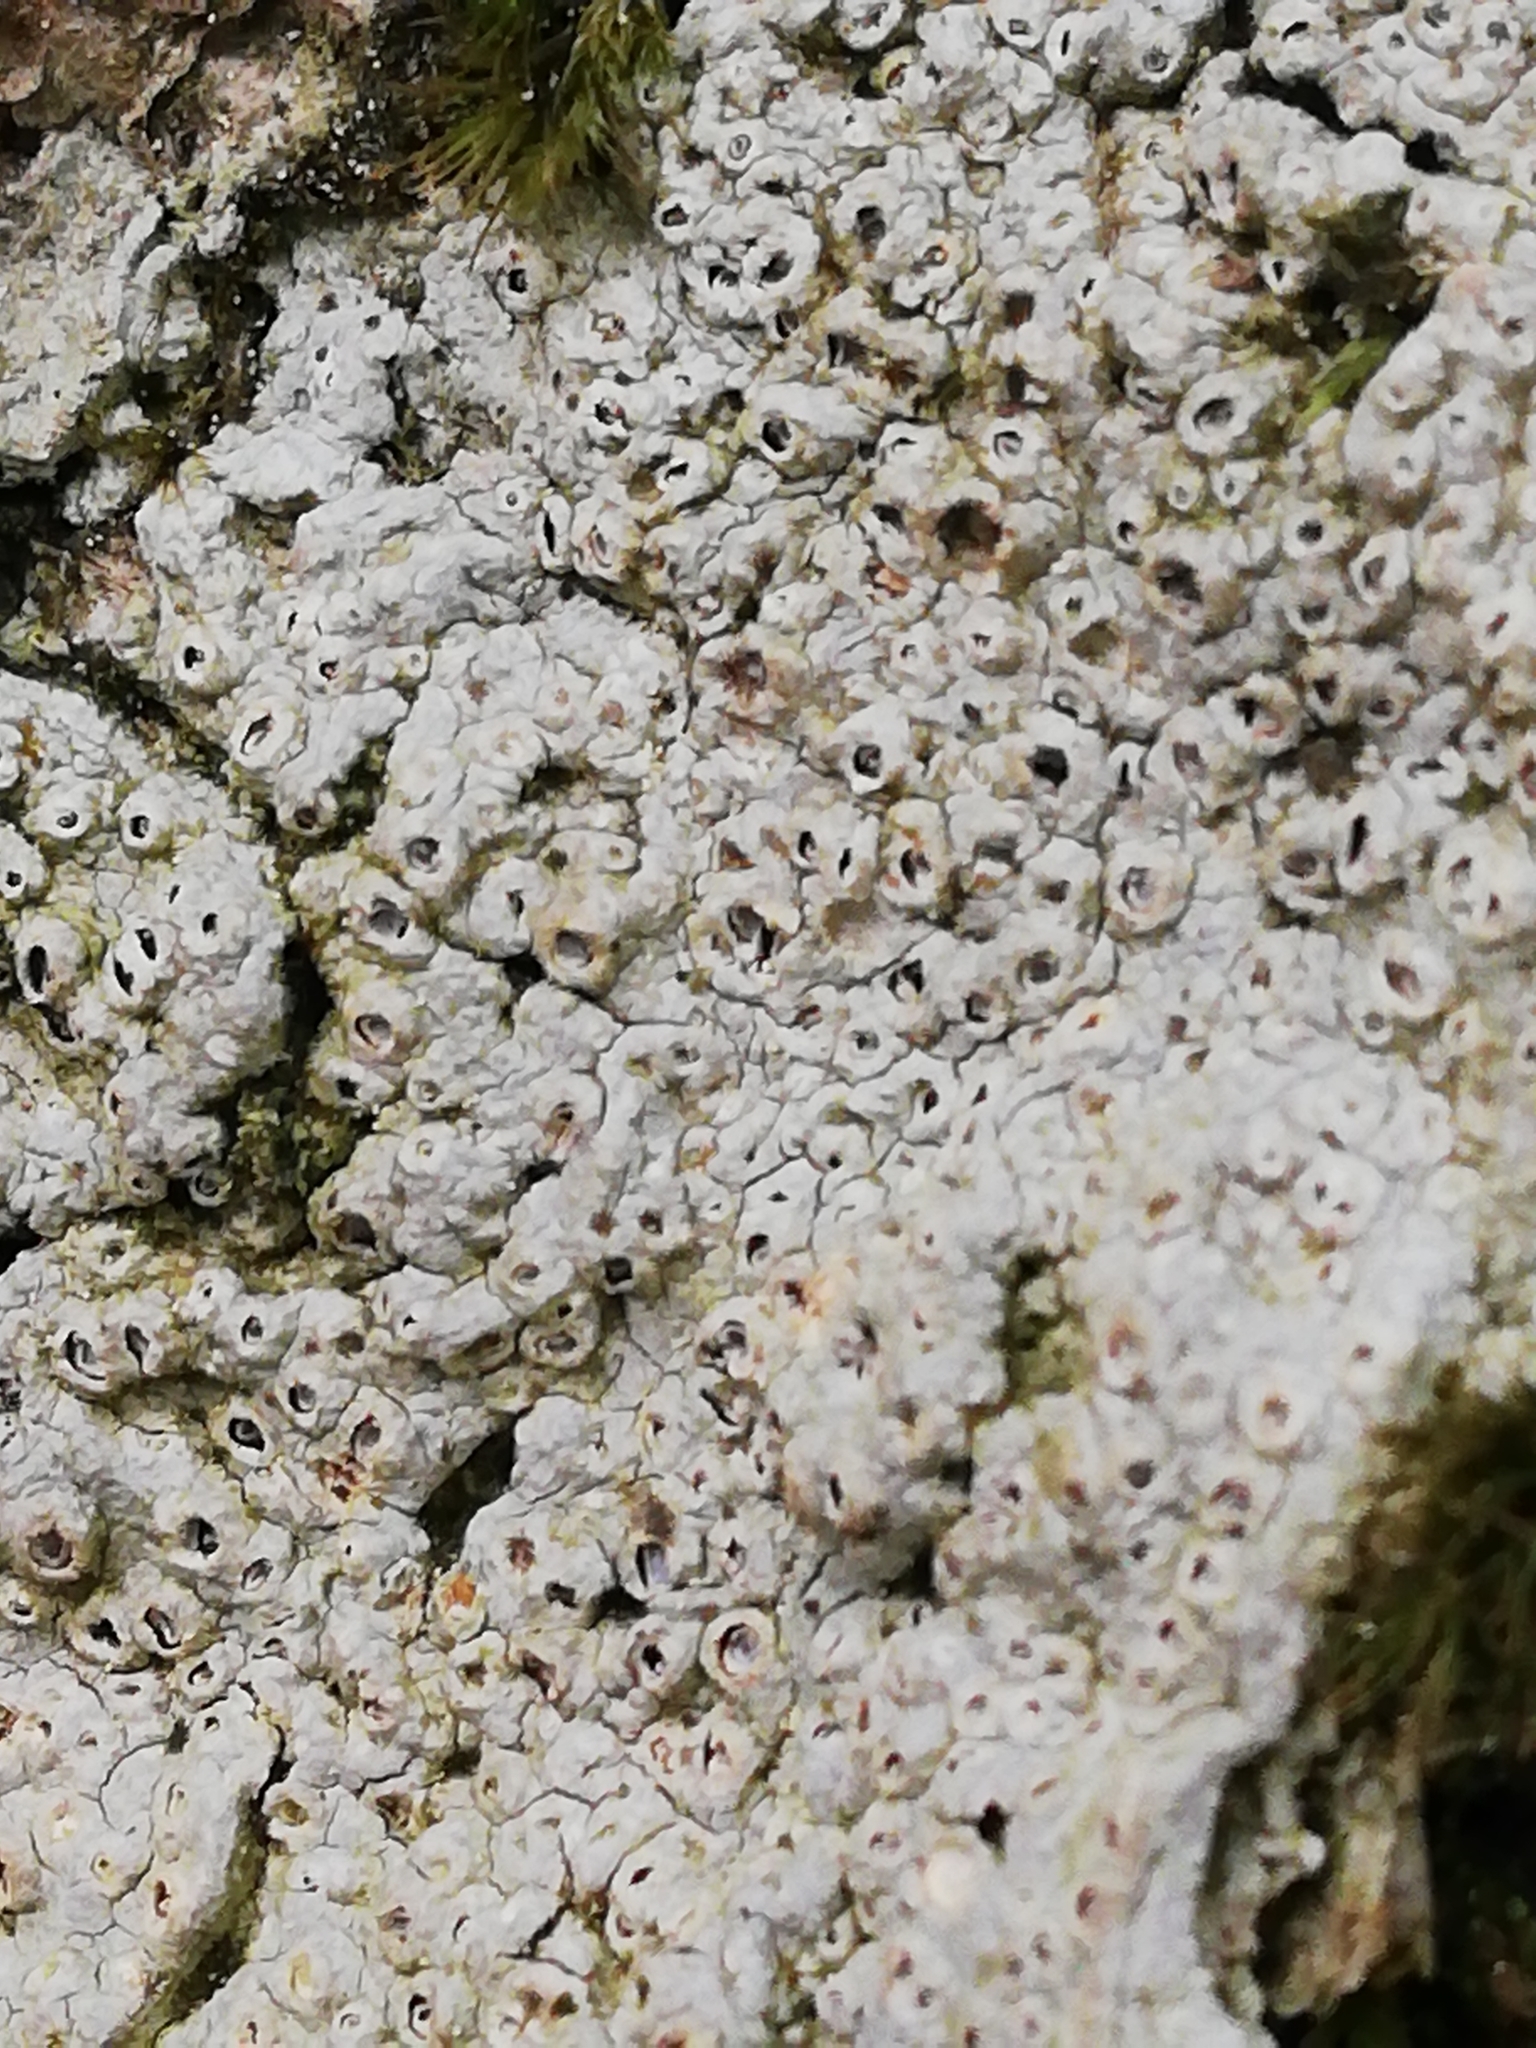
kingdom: Fungi
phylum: Ascomycota
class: Lecanoromycetes
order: Ostropales
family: Graphidaceae
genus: Thelotrema
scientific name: Thelotrema lepadinum
